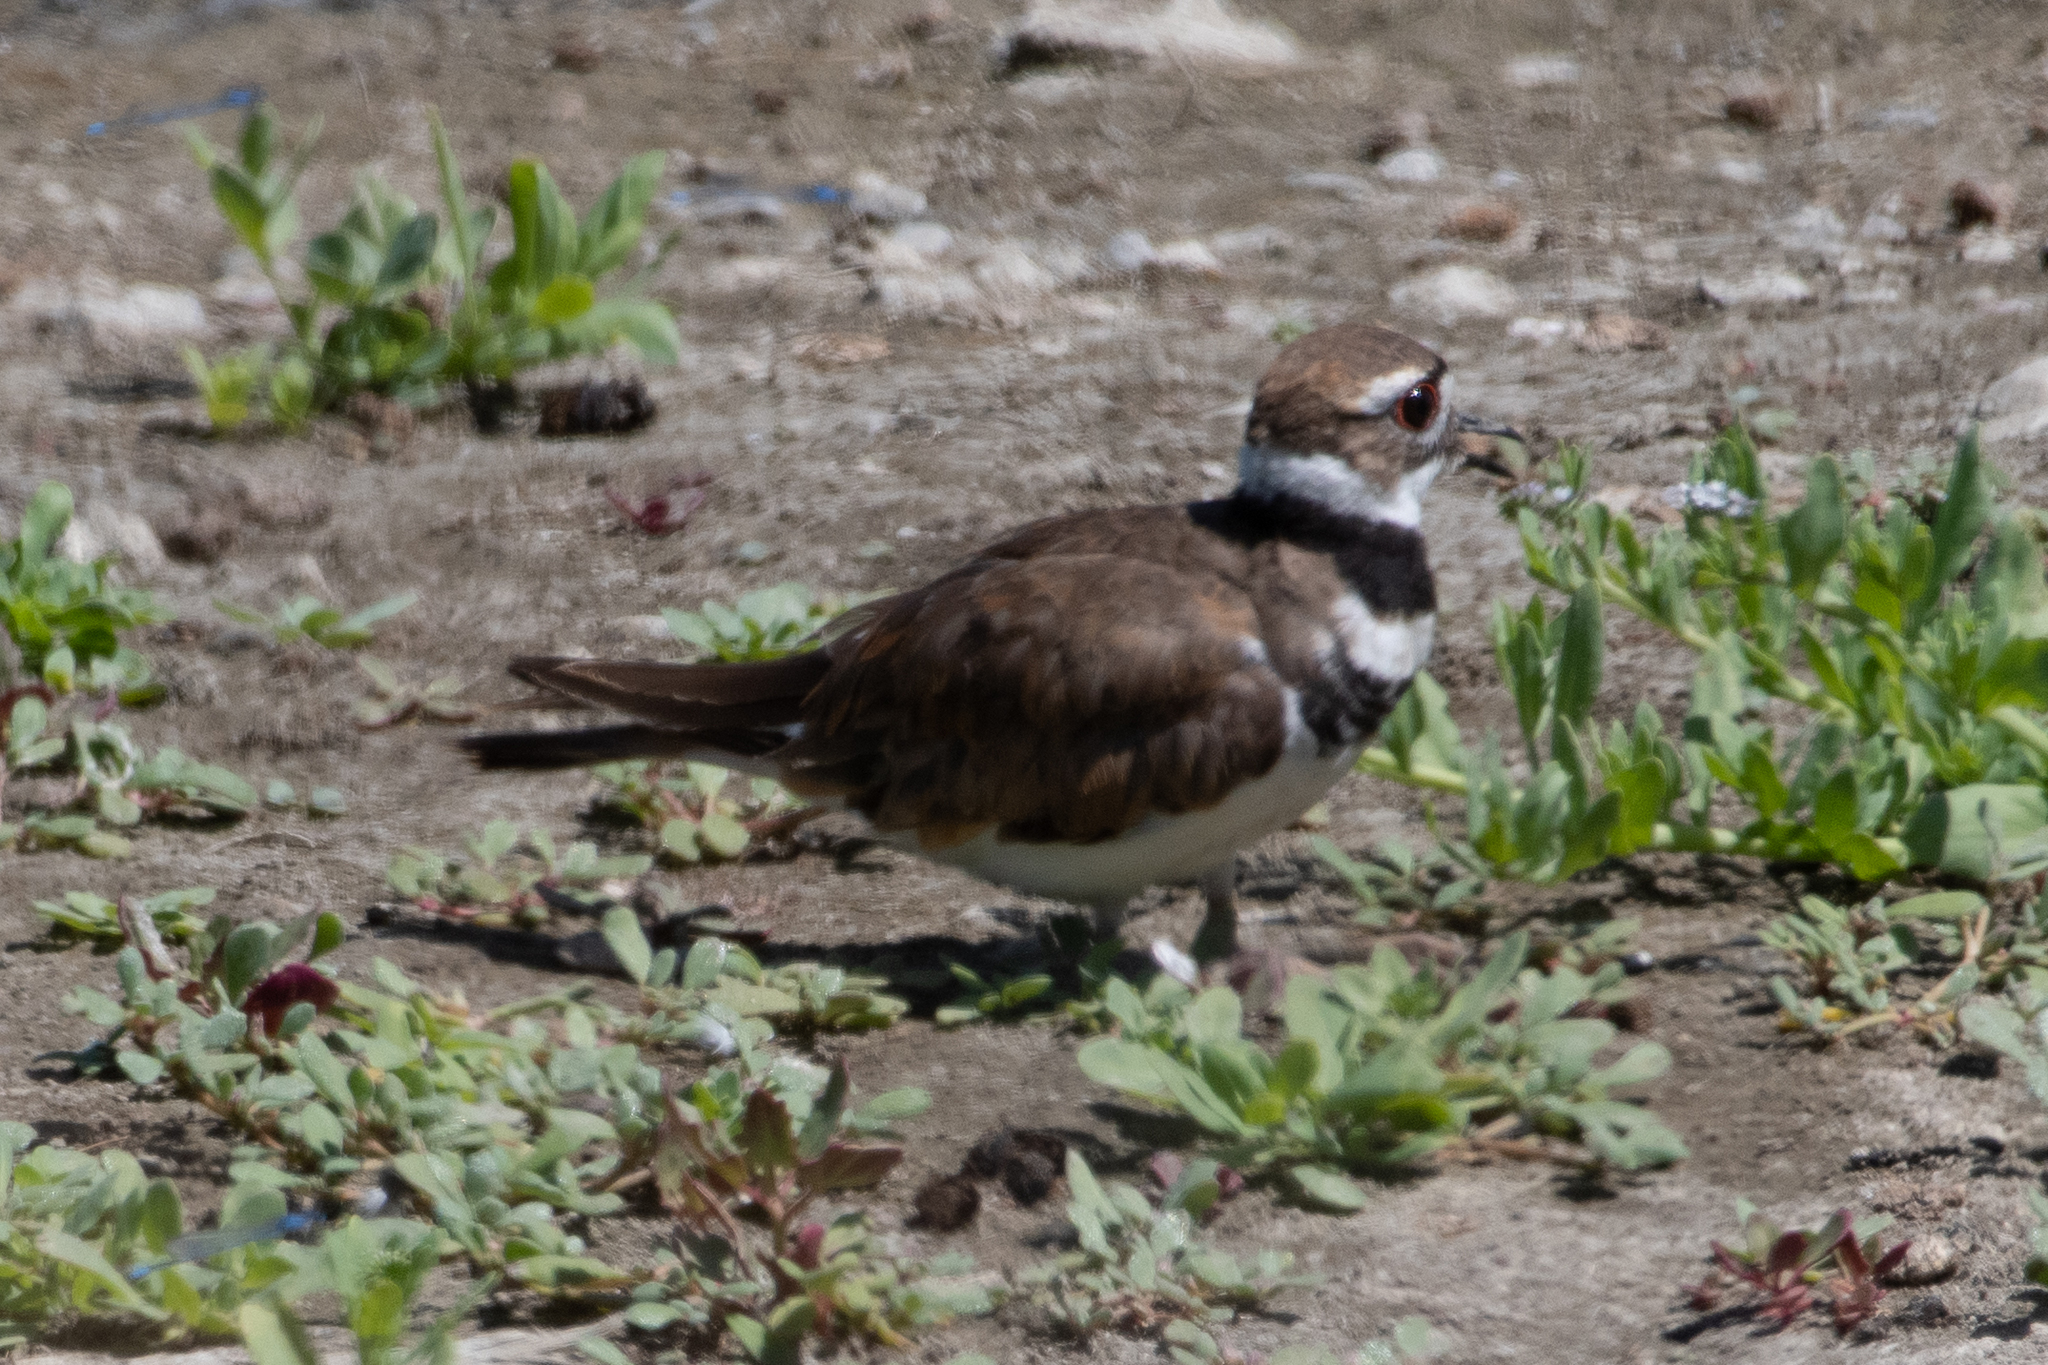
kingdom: Animalia
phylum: Chordata
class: Aves
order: Charadriiformes
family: Charadriidae
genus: Charadrius
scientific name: Charadrius vociferus
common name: Killdeer
